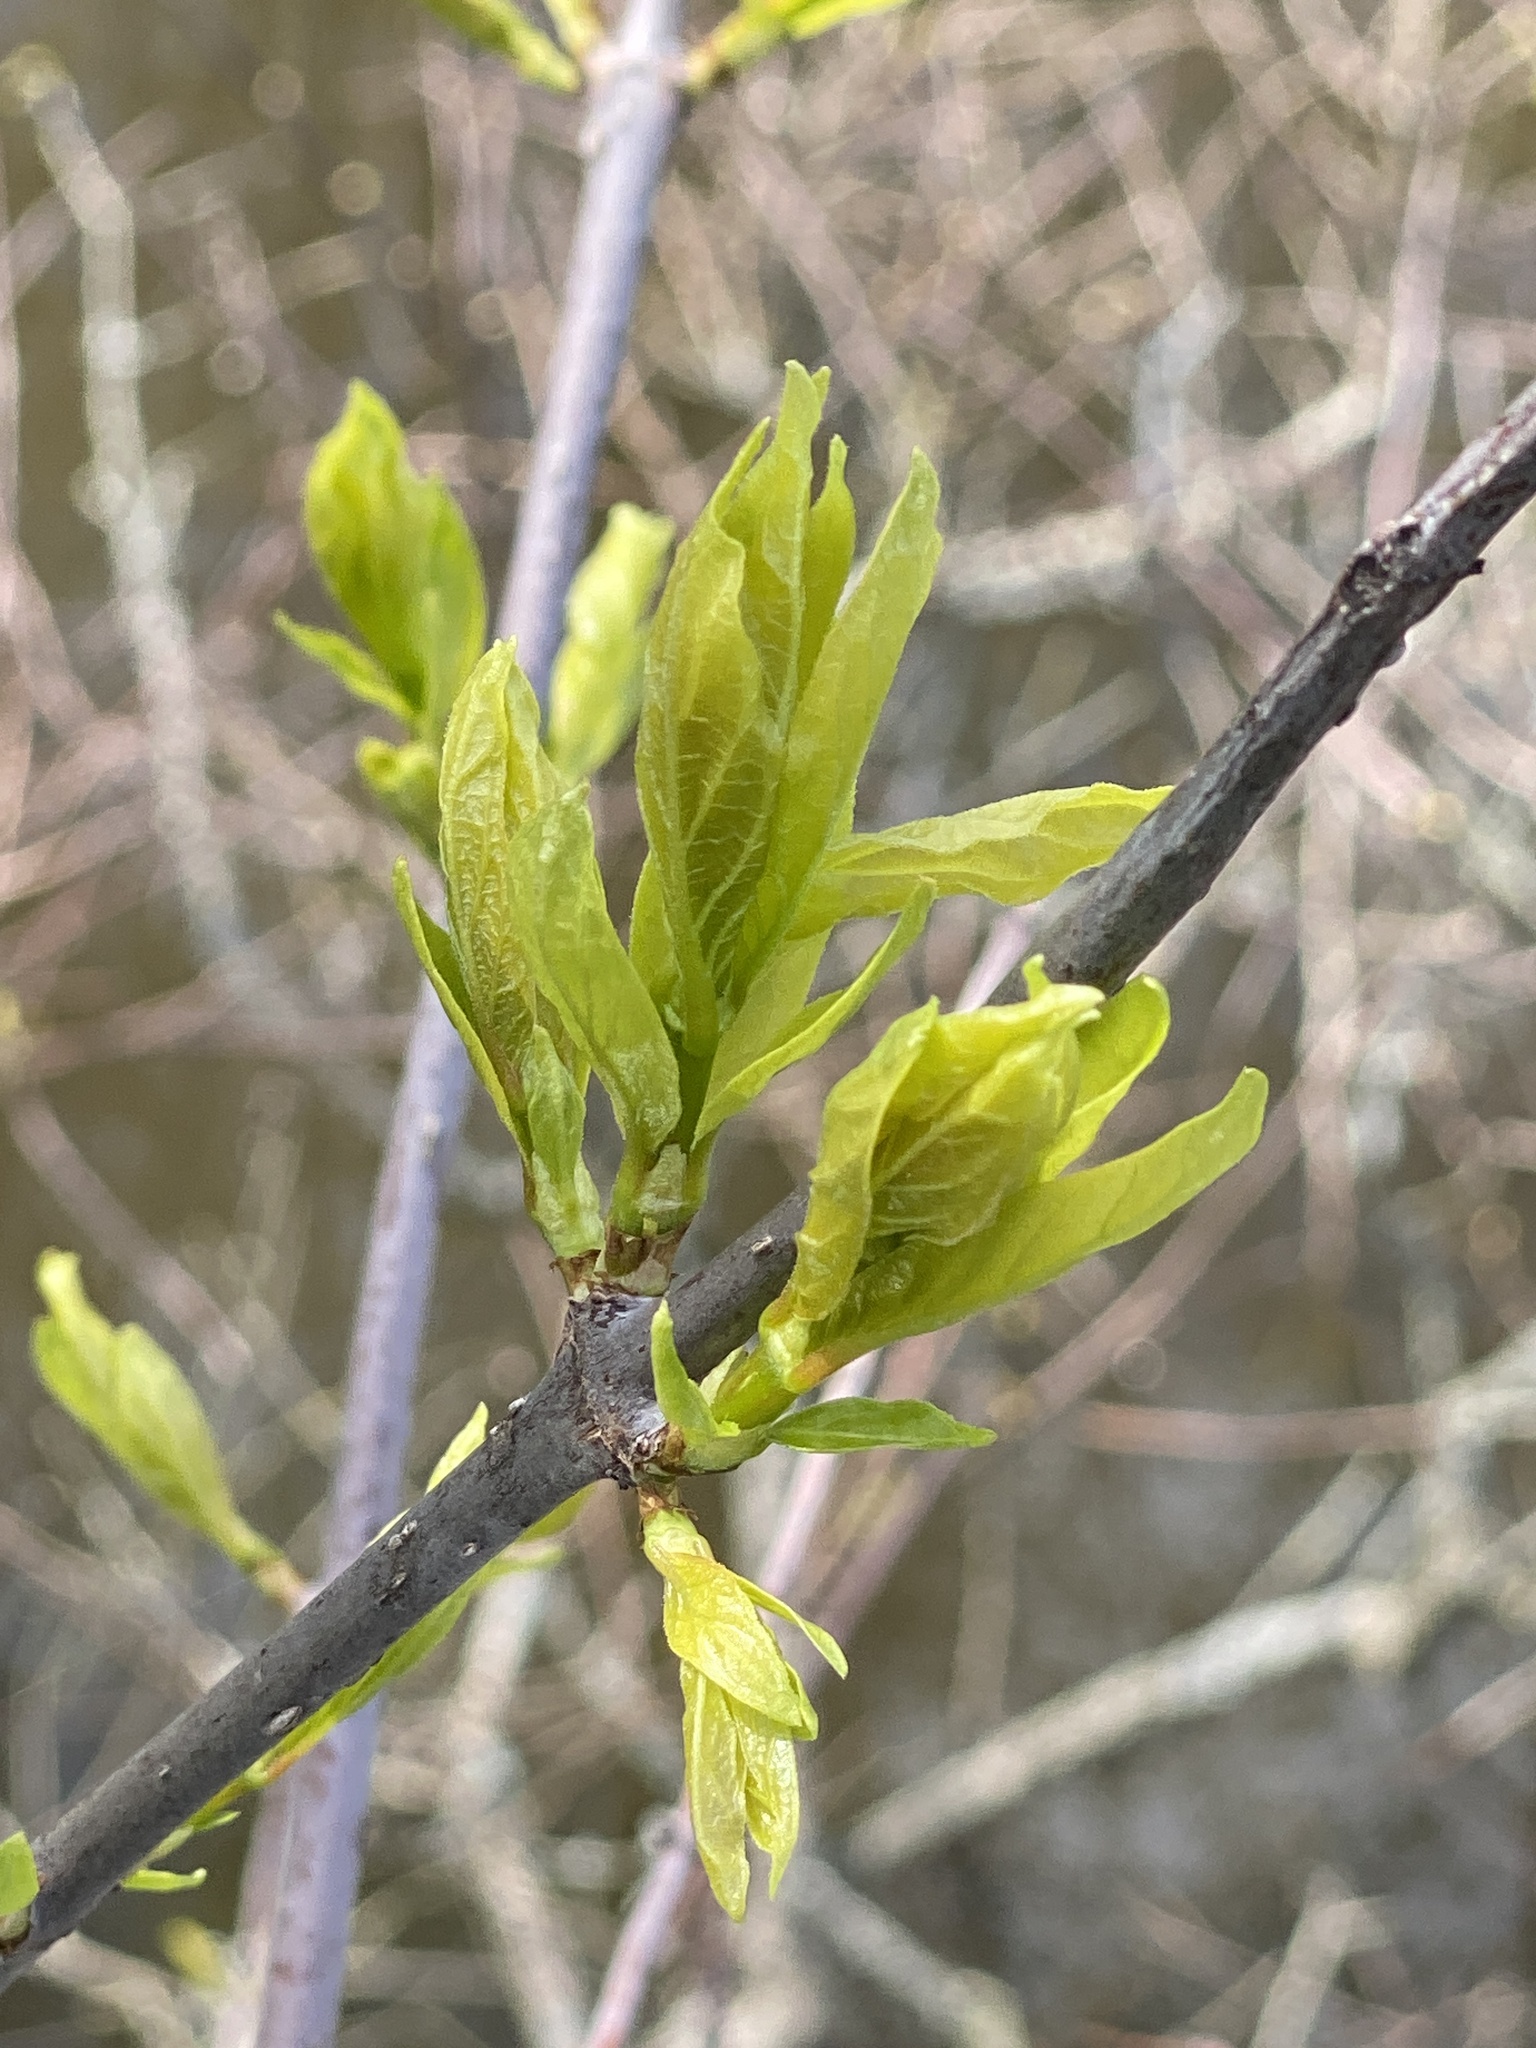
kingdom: Plantae
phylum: Tracheophyta
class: Magnoliopsida
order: Gentianales
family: Rubiaceae
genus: Cephalanthus
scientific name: Cephalanthus occidentalis
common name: Button-willow
